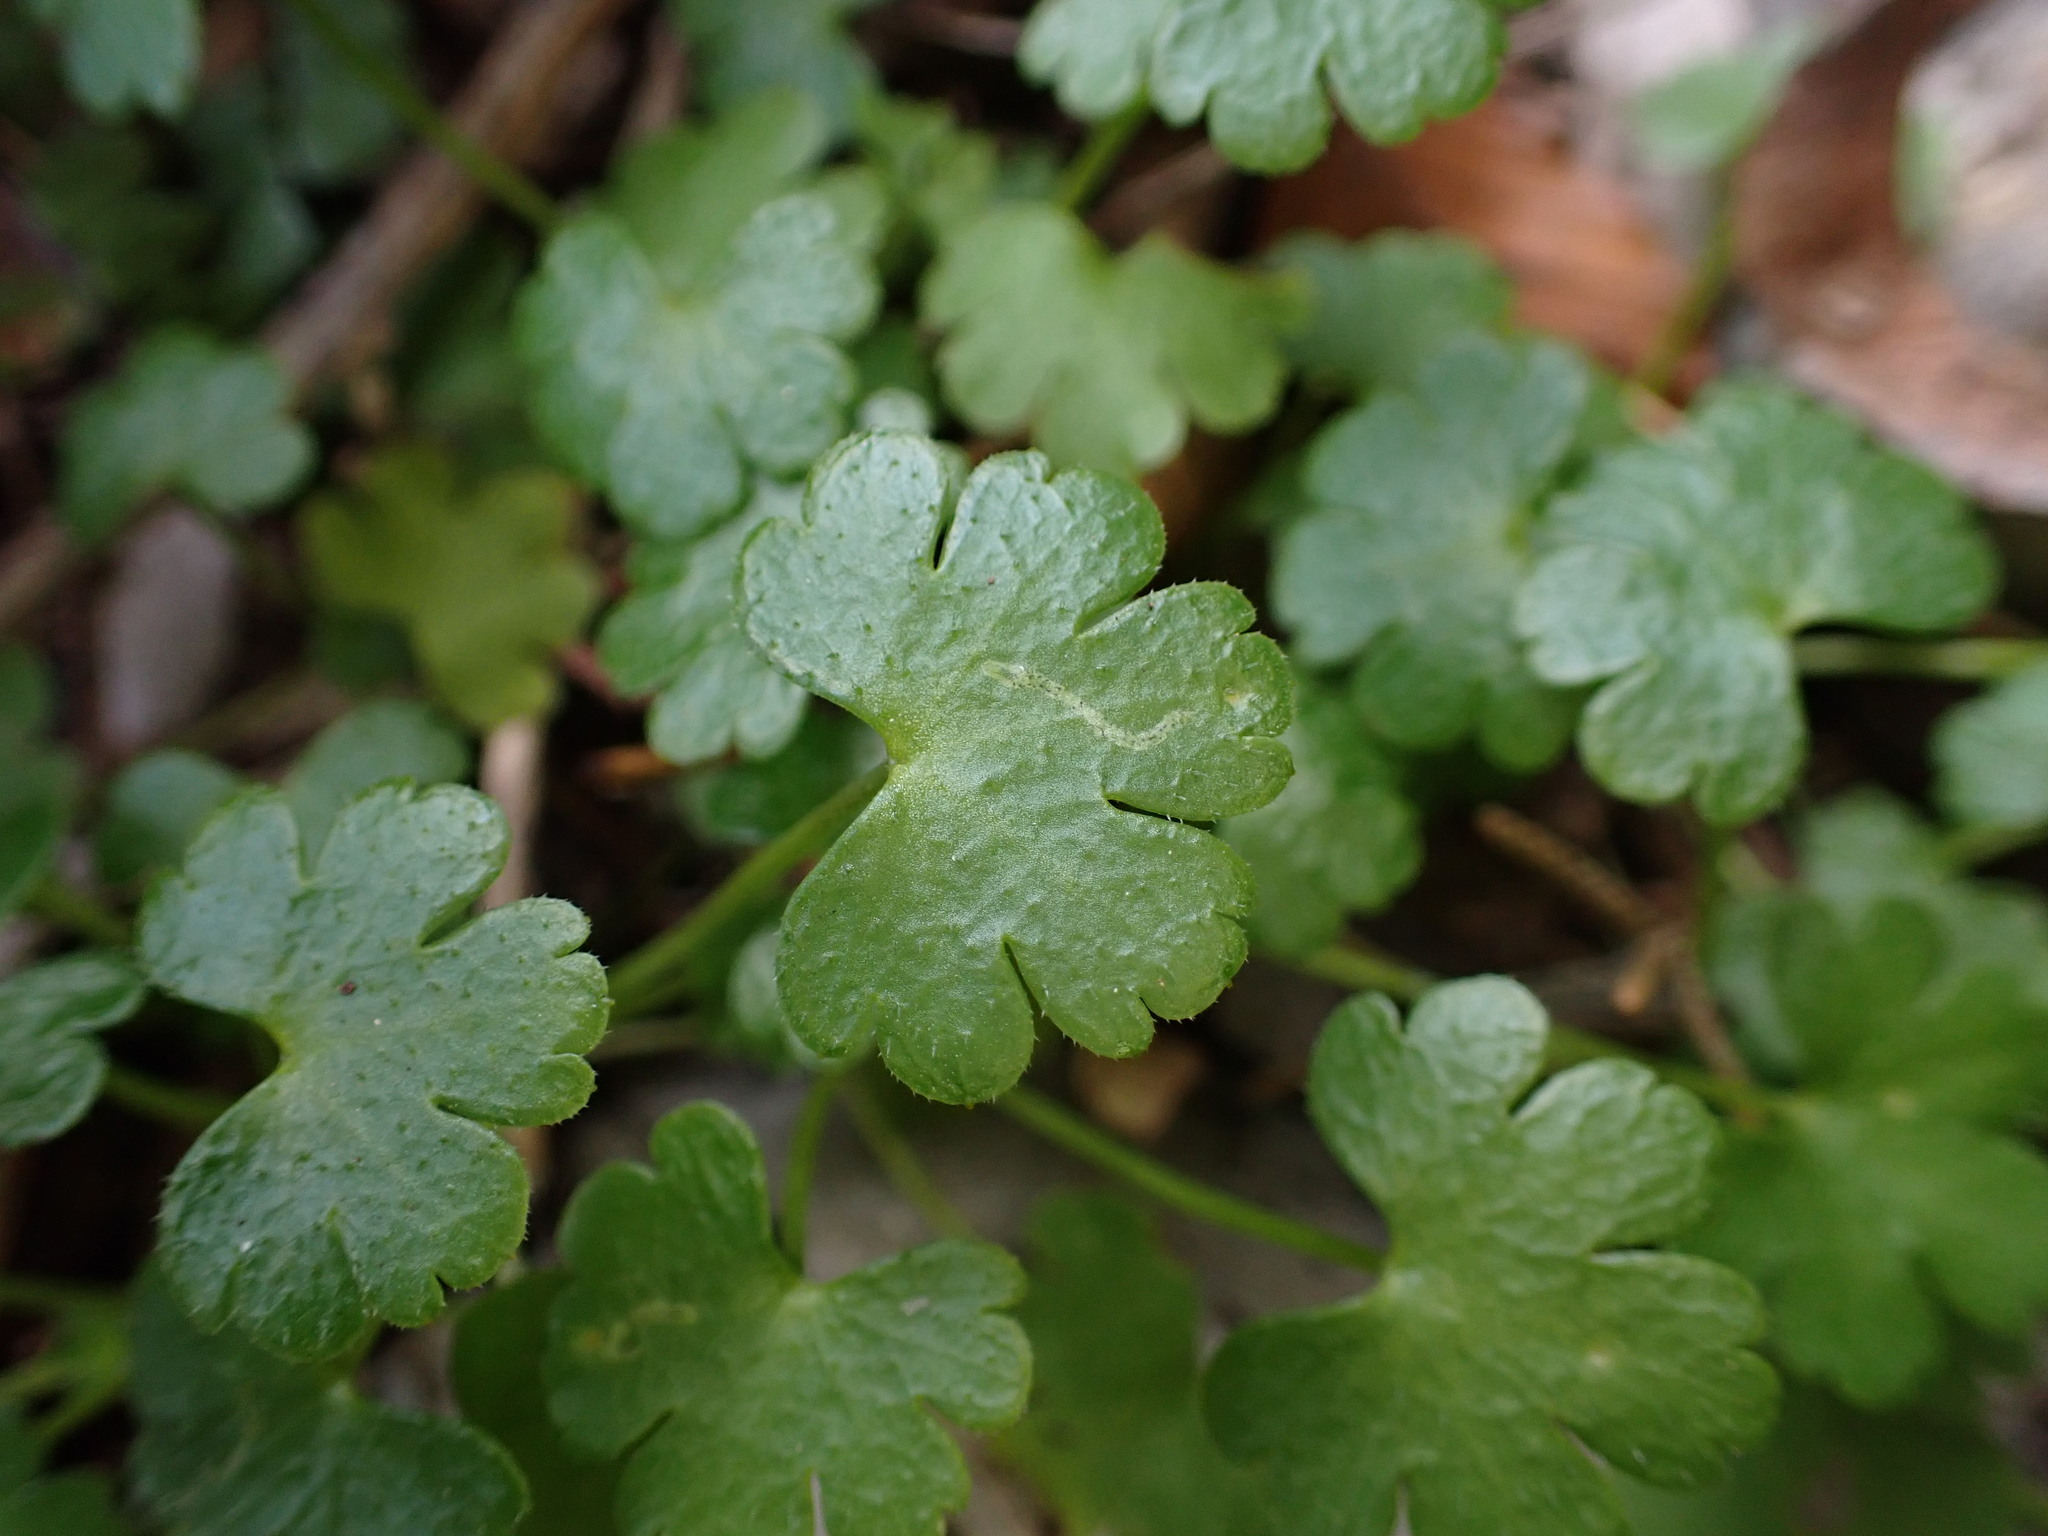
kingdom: Plantae
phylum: Tracheophyta
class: Magnoliopsida
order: Geraniales
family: Geraniaceae
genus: Geranium
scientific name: Geranium lucidum
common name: Shining crane's-bill
